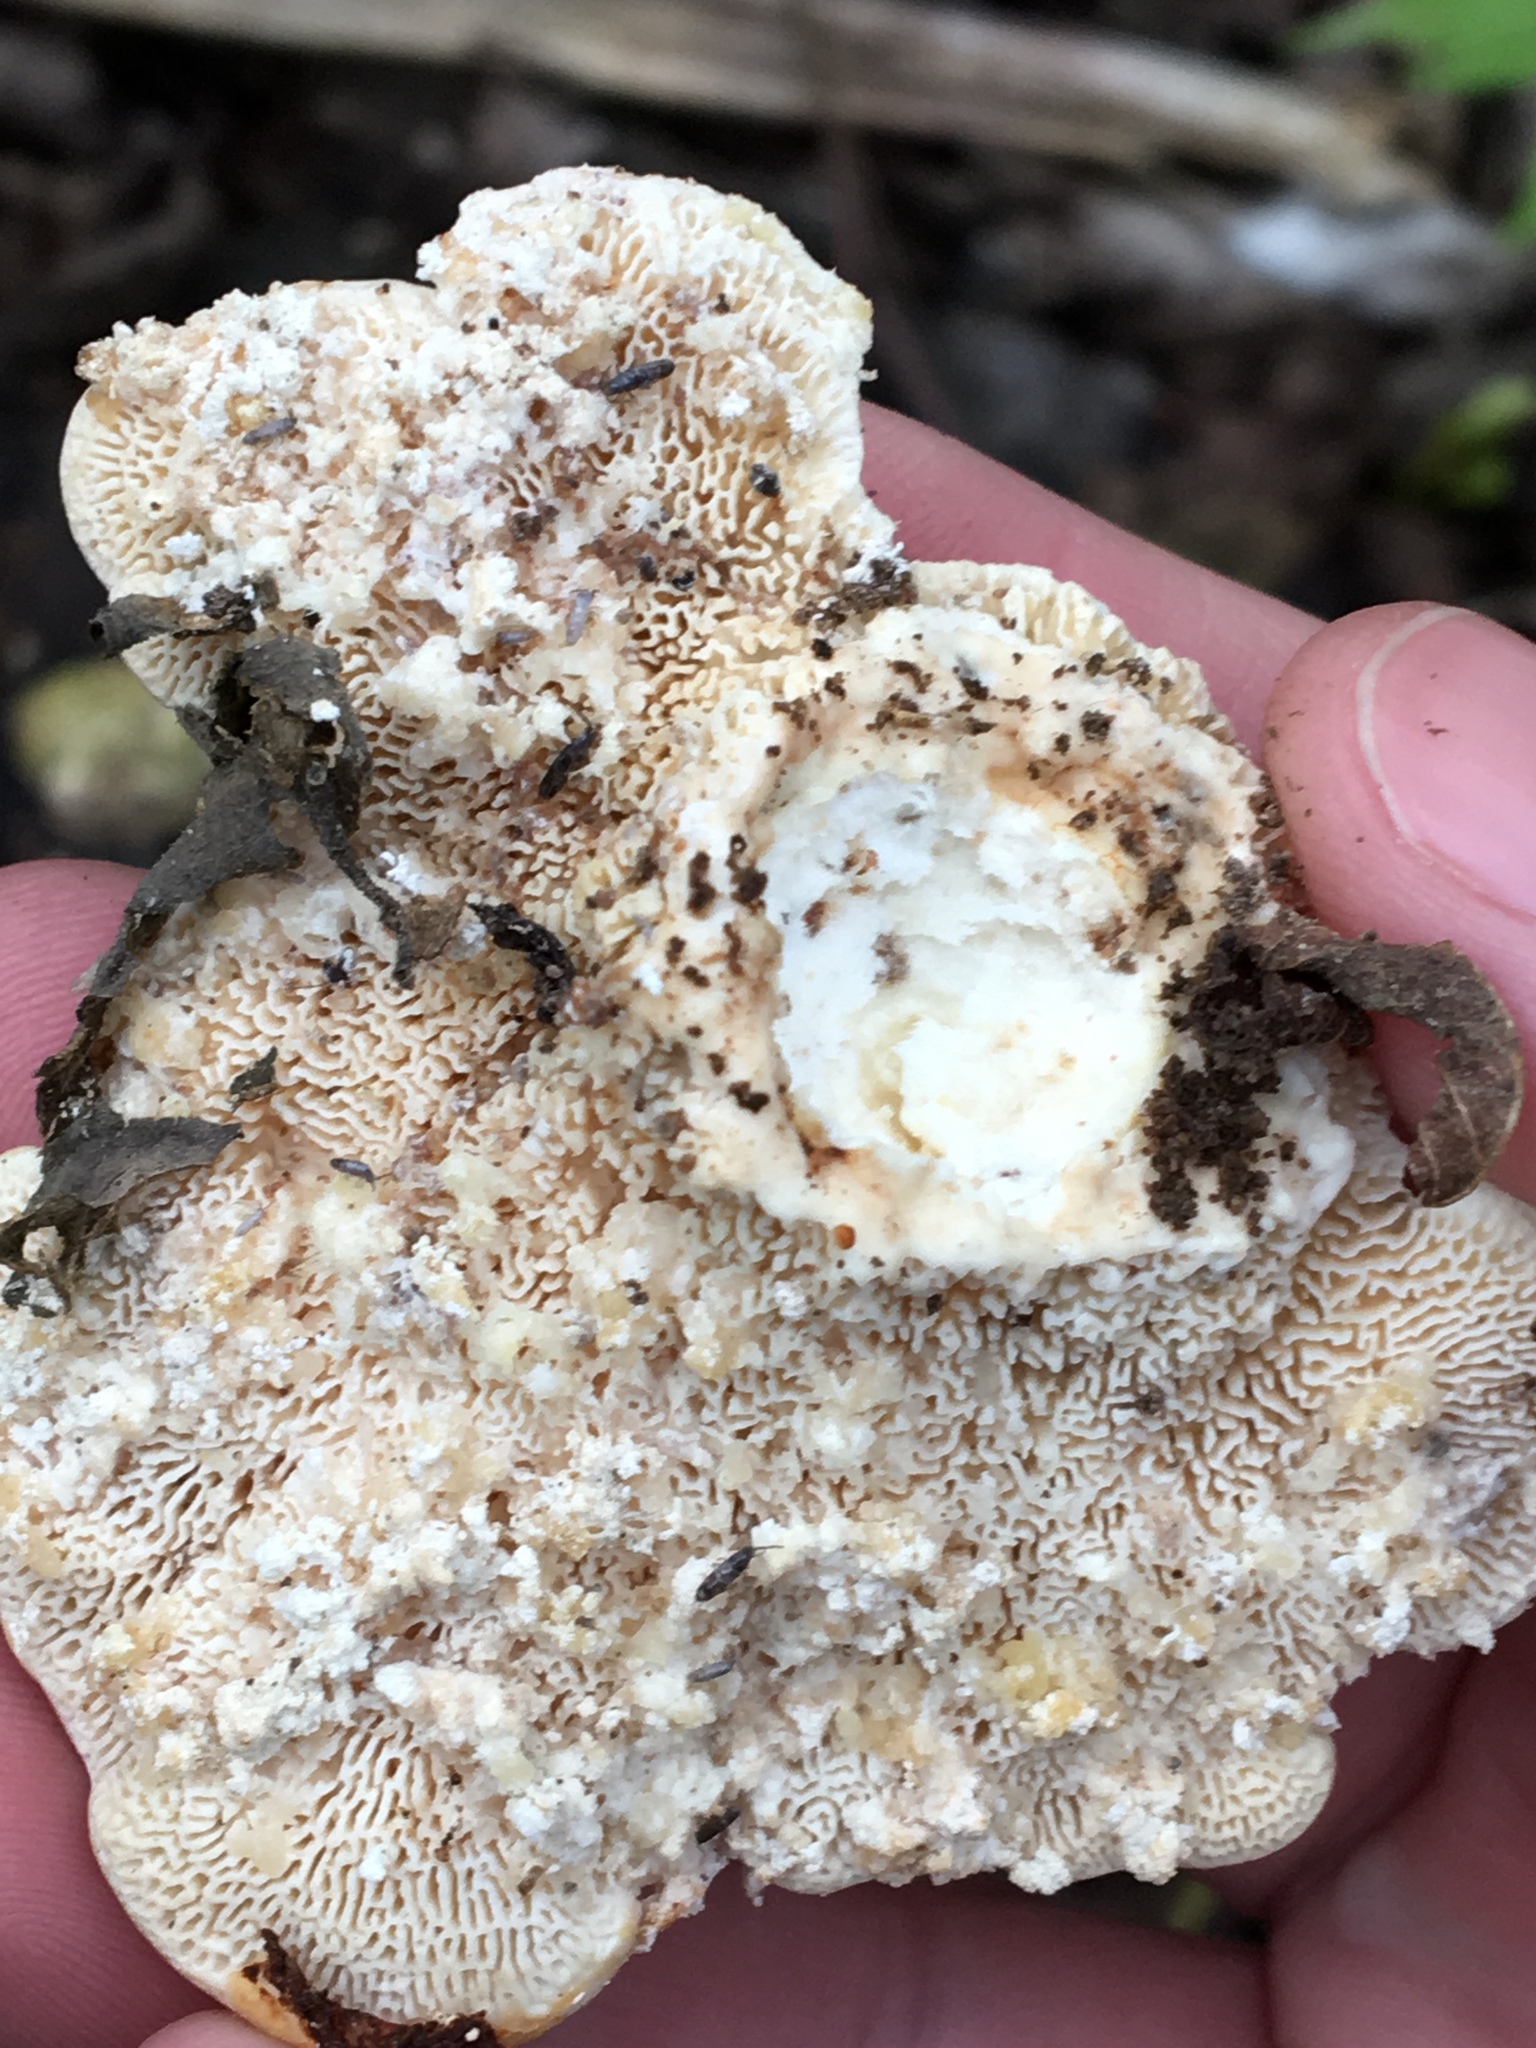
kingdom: Fungi
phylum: Basidiomycota
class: Agaricomycetes
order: Polyporales
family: Polyporaceae
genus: Trametes
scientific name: Trametes gibbosa
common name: Lumpy bracket
